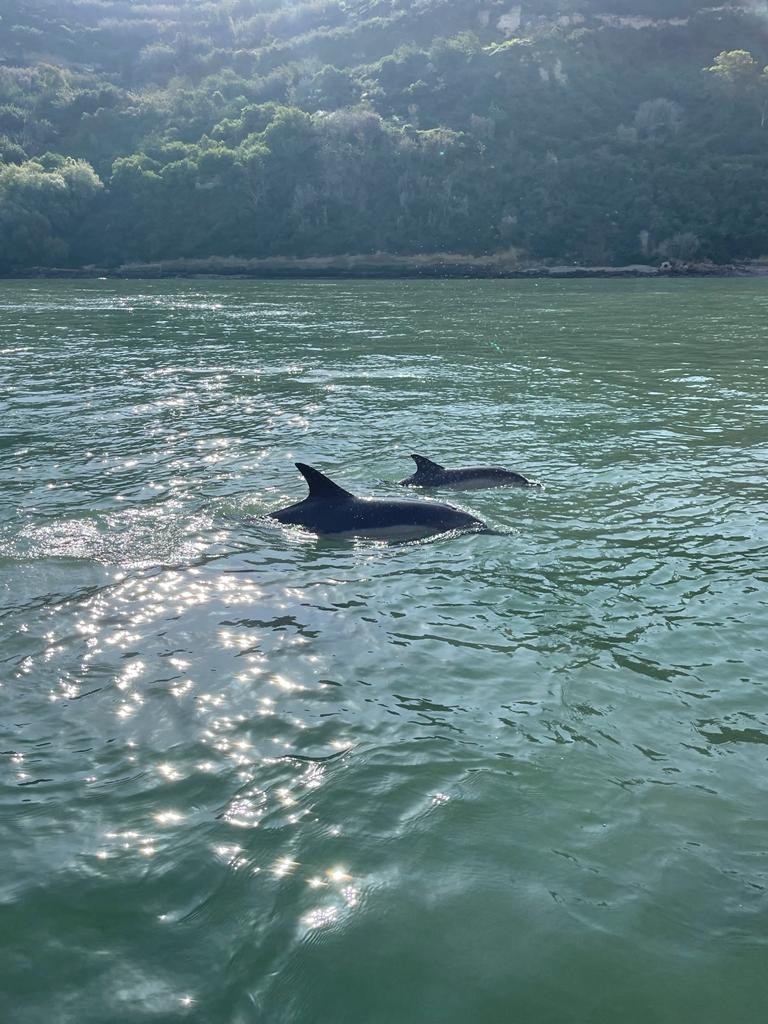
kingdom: Animalia
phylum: Chordata
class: Mammalia
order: Cetacea
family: Delphinidae
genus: Delphinus
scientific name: Delphinus delphis
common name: Common dolphin
